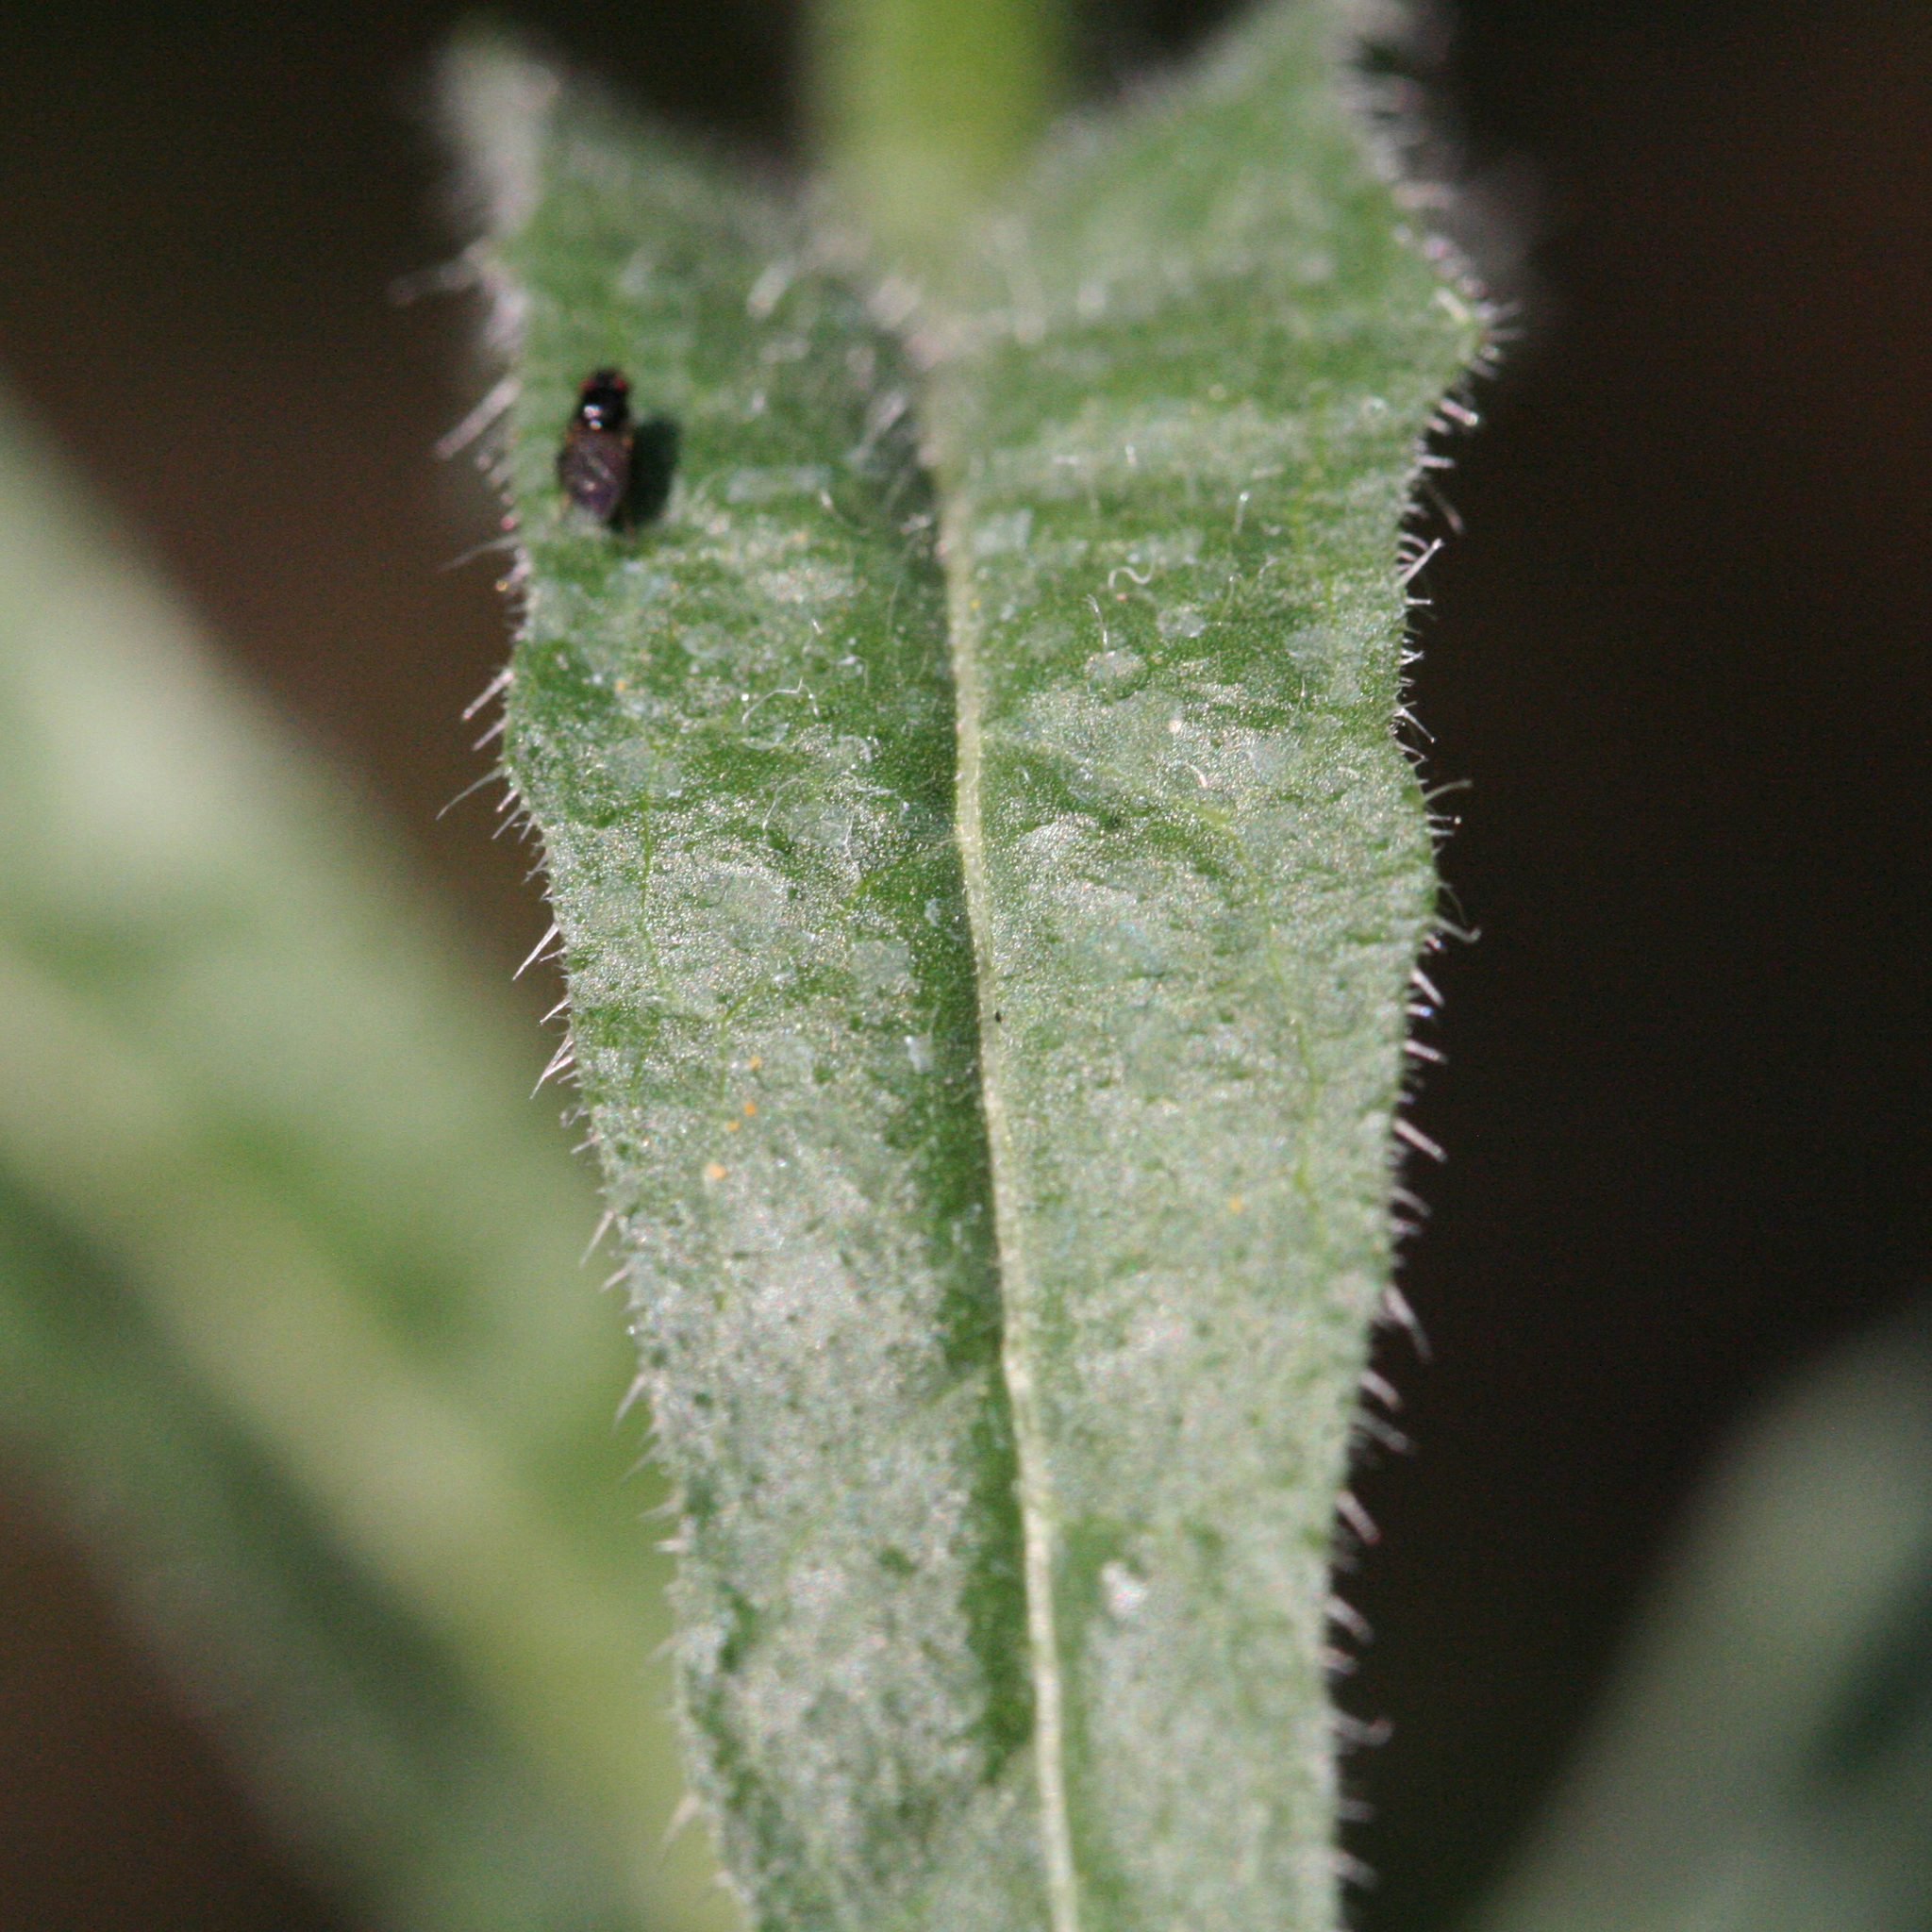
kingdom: Plantae
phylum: Tracheophyta
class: Magnoliopsida
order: Asterales
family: Asteraceae
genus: Picris
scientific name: Picris hieracioides
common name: Hawkweed oxtongue
